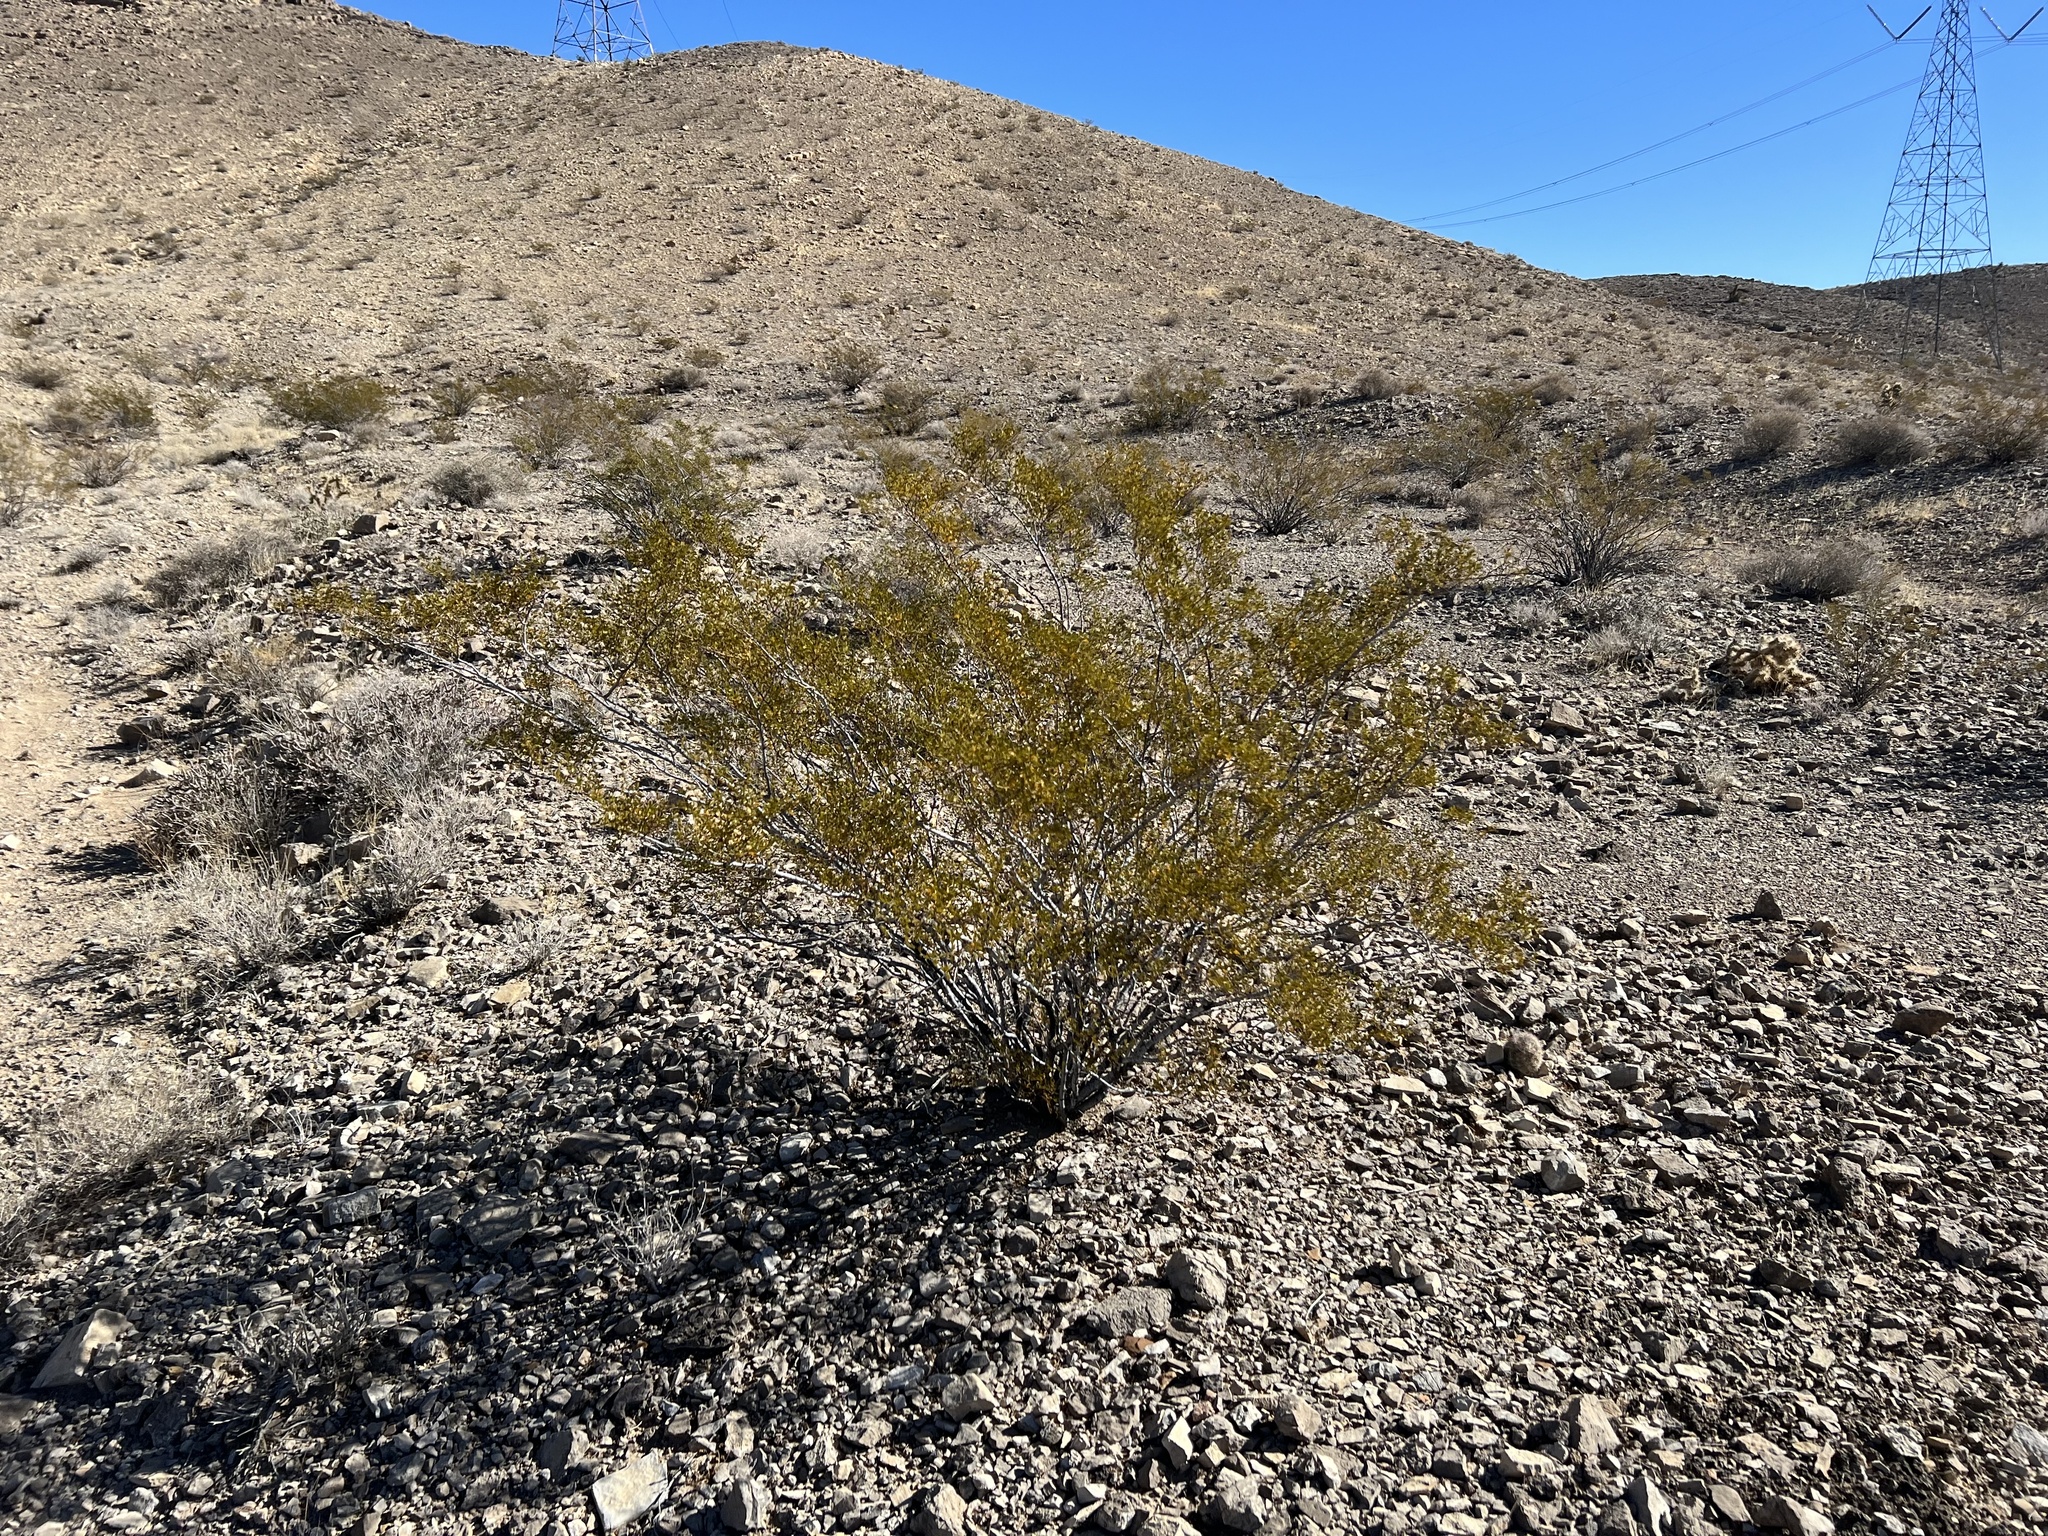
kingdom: Plantae
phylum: Tracheophyta
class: Magnoliopsida
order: Zygophyllales
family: Zygophyllaceae
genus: Larrea
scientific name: Larrea tridentata
